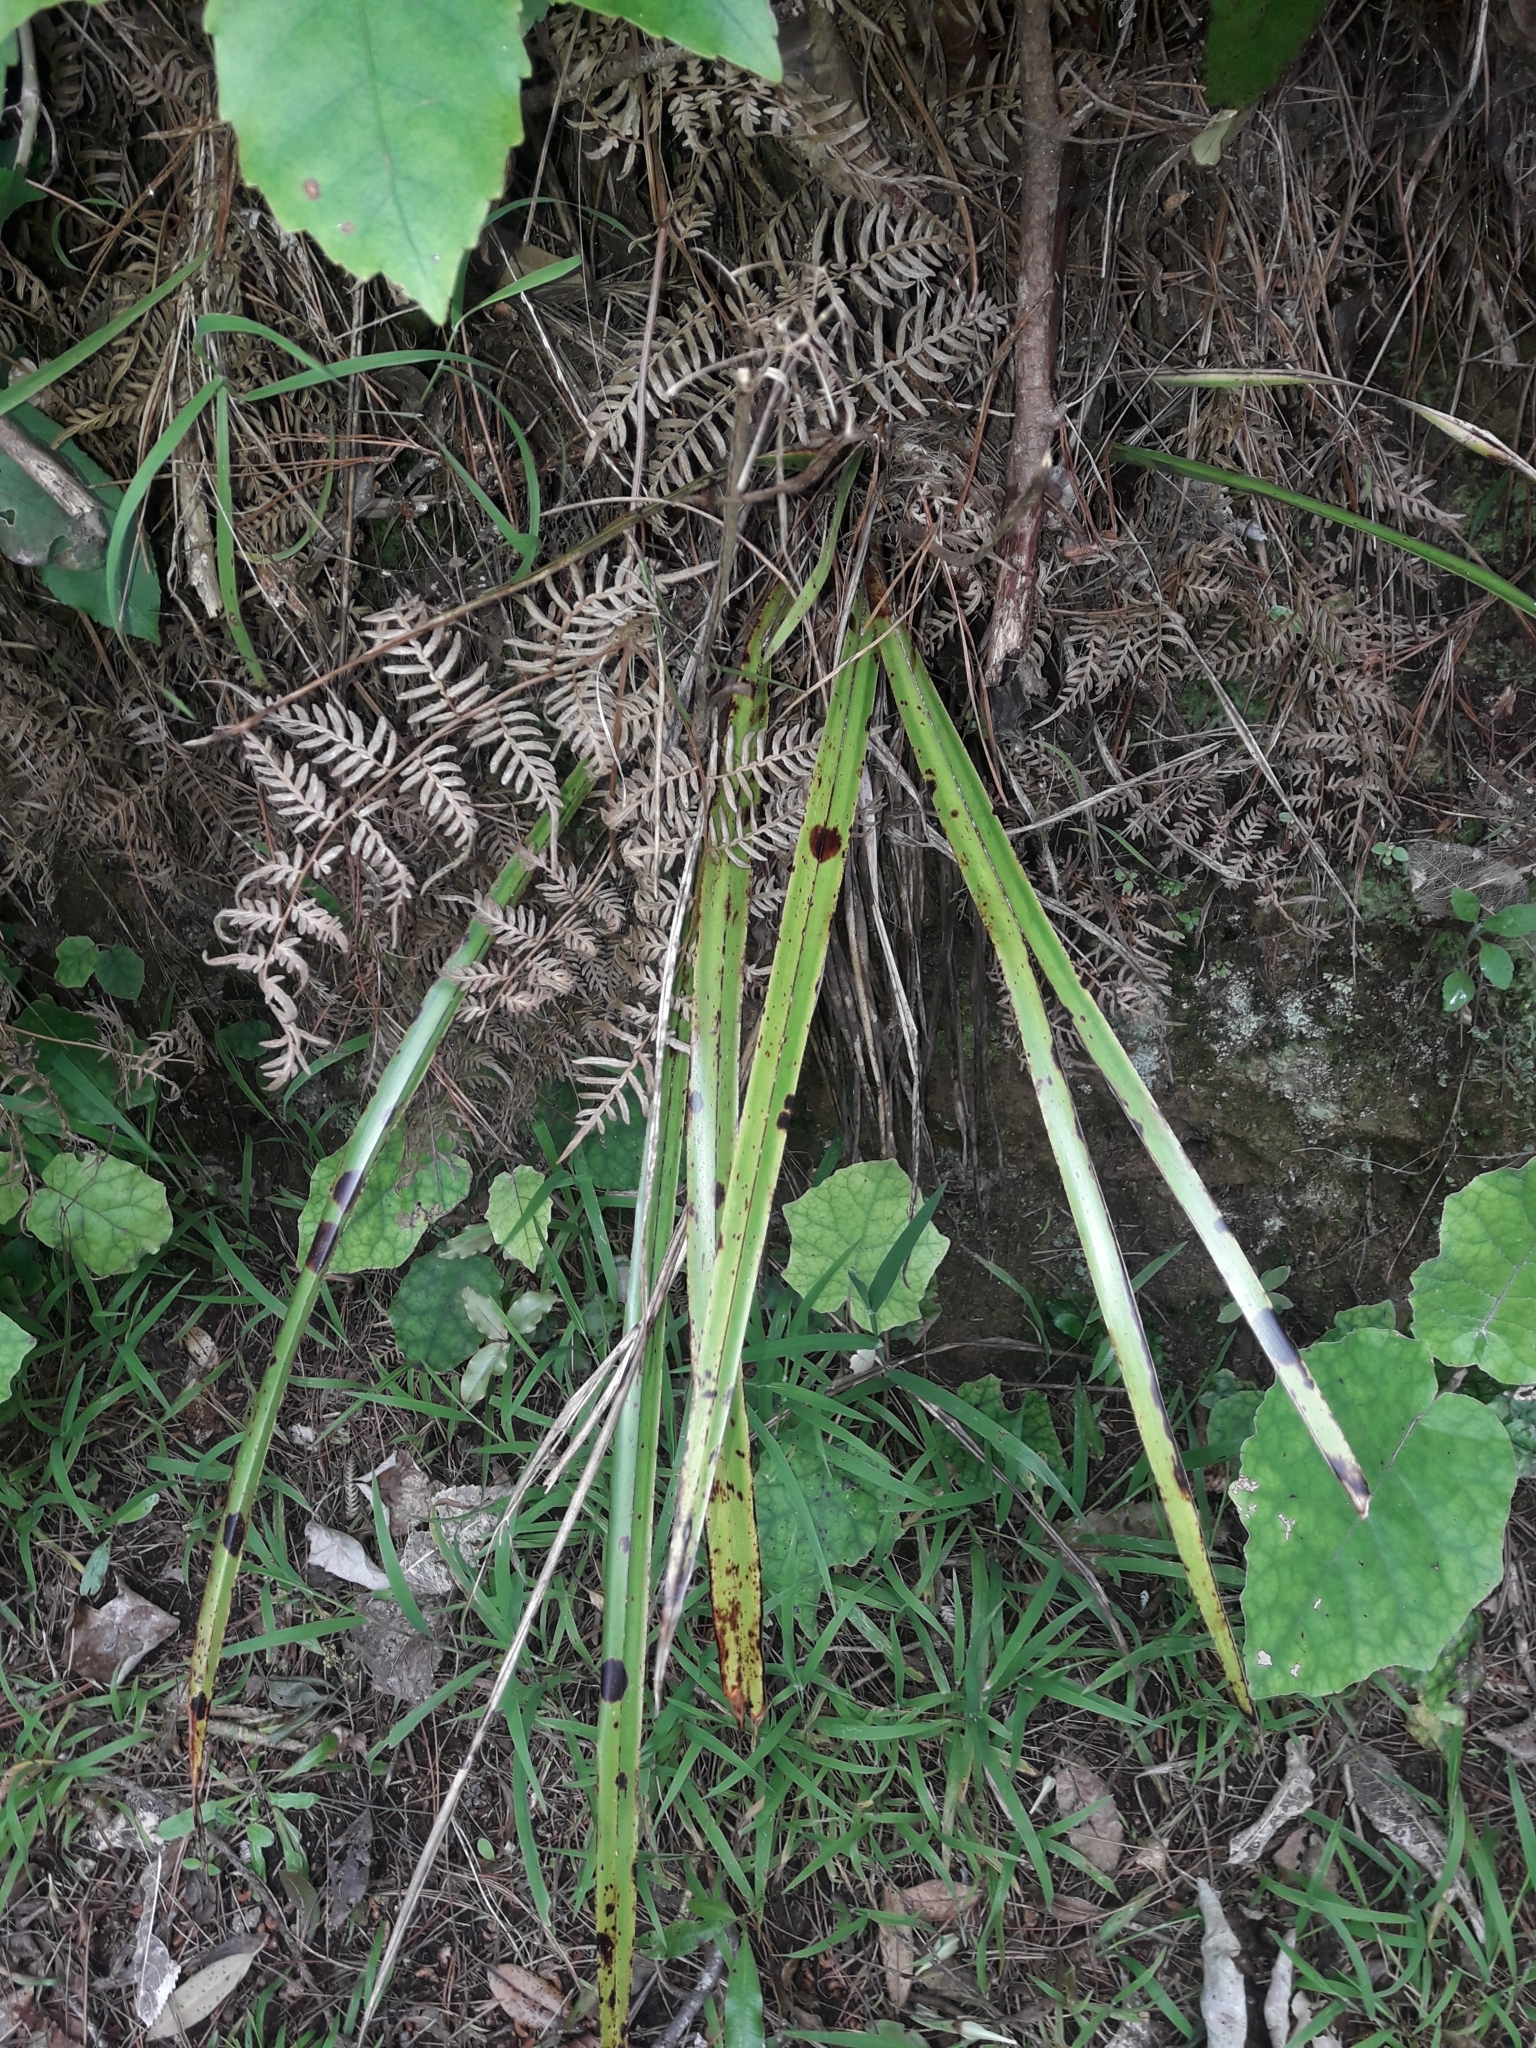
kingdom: Plantae
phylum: Tracheophyta
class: Liliopsida
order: Asparagales
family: Asphodelaceae
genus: Dianella
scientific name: Dianella nigra
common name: New zealand-blueberry
